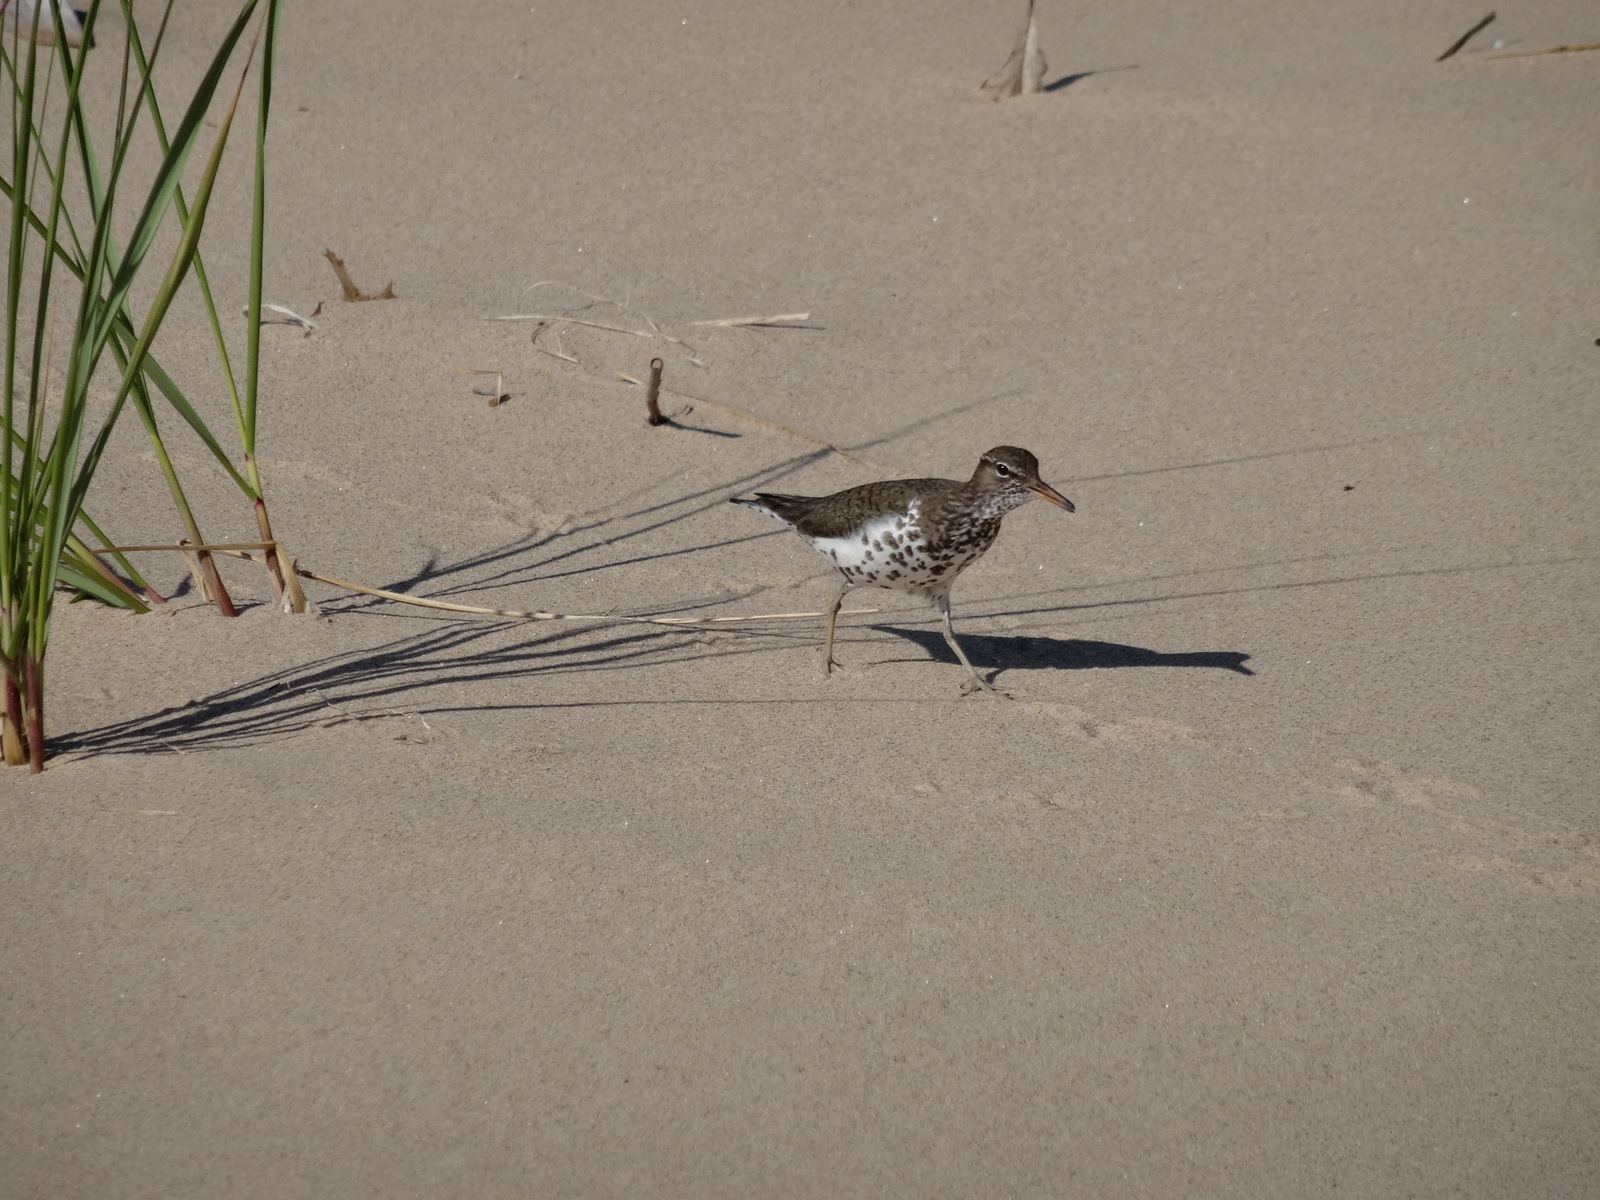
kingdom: Animalia
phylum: Chordata
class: Aves
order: Charadriiformes
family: Scolopacidae
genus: Actitis
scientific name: Actitis macularius
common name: Spotted sandpiper
